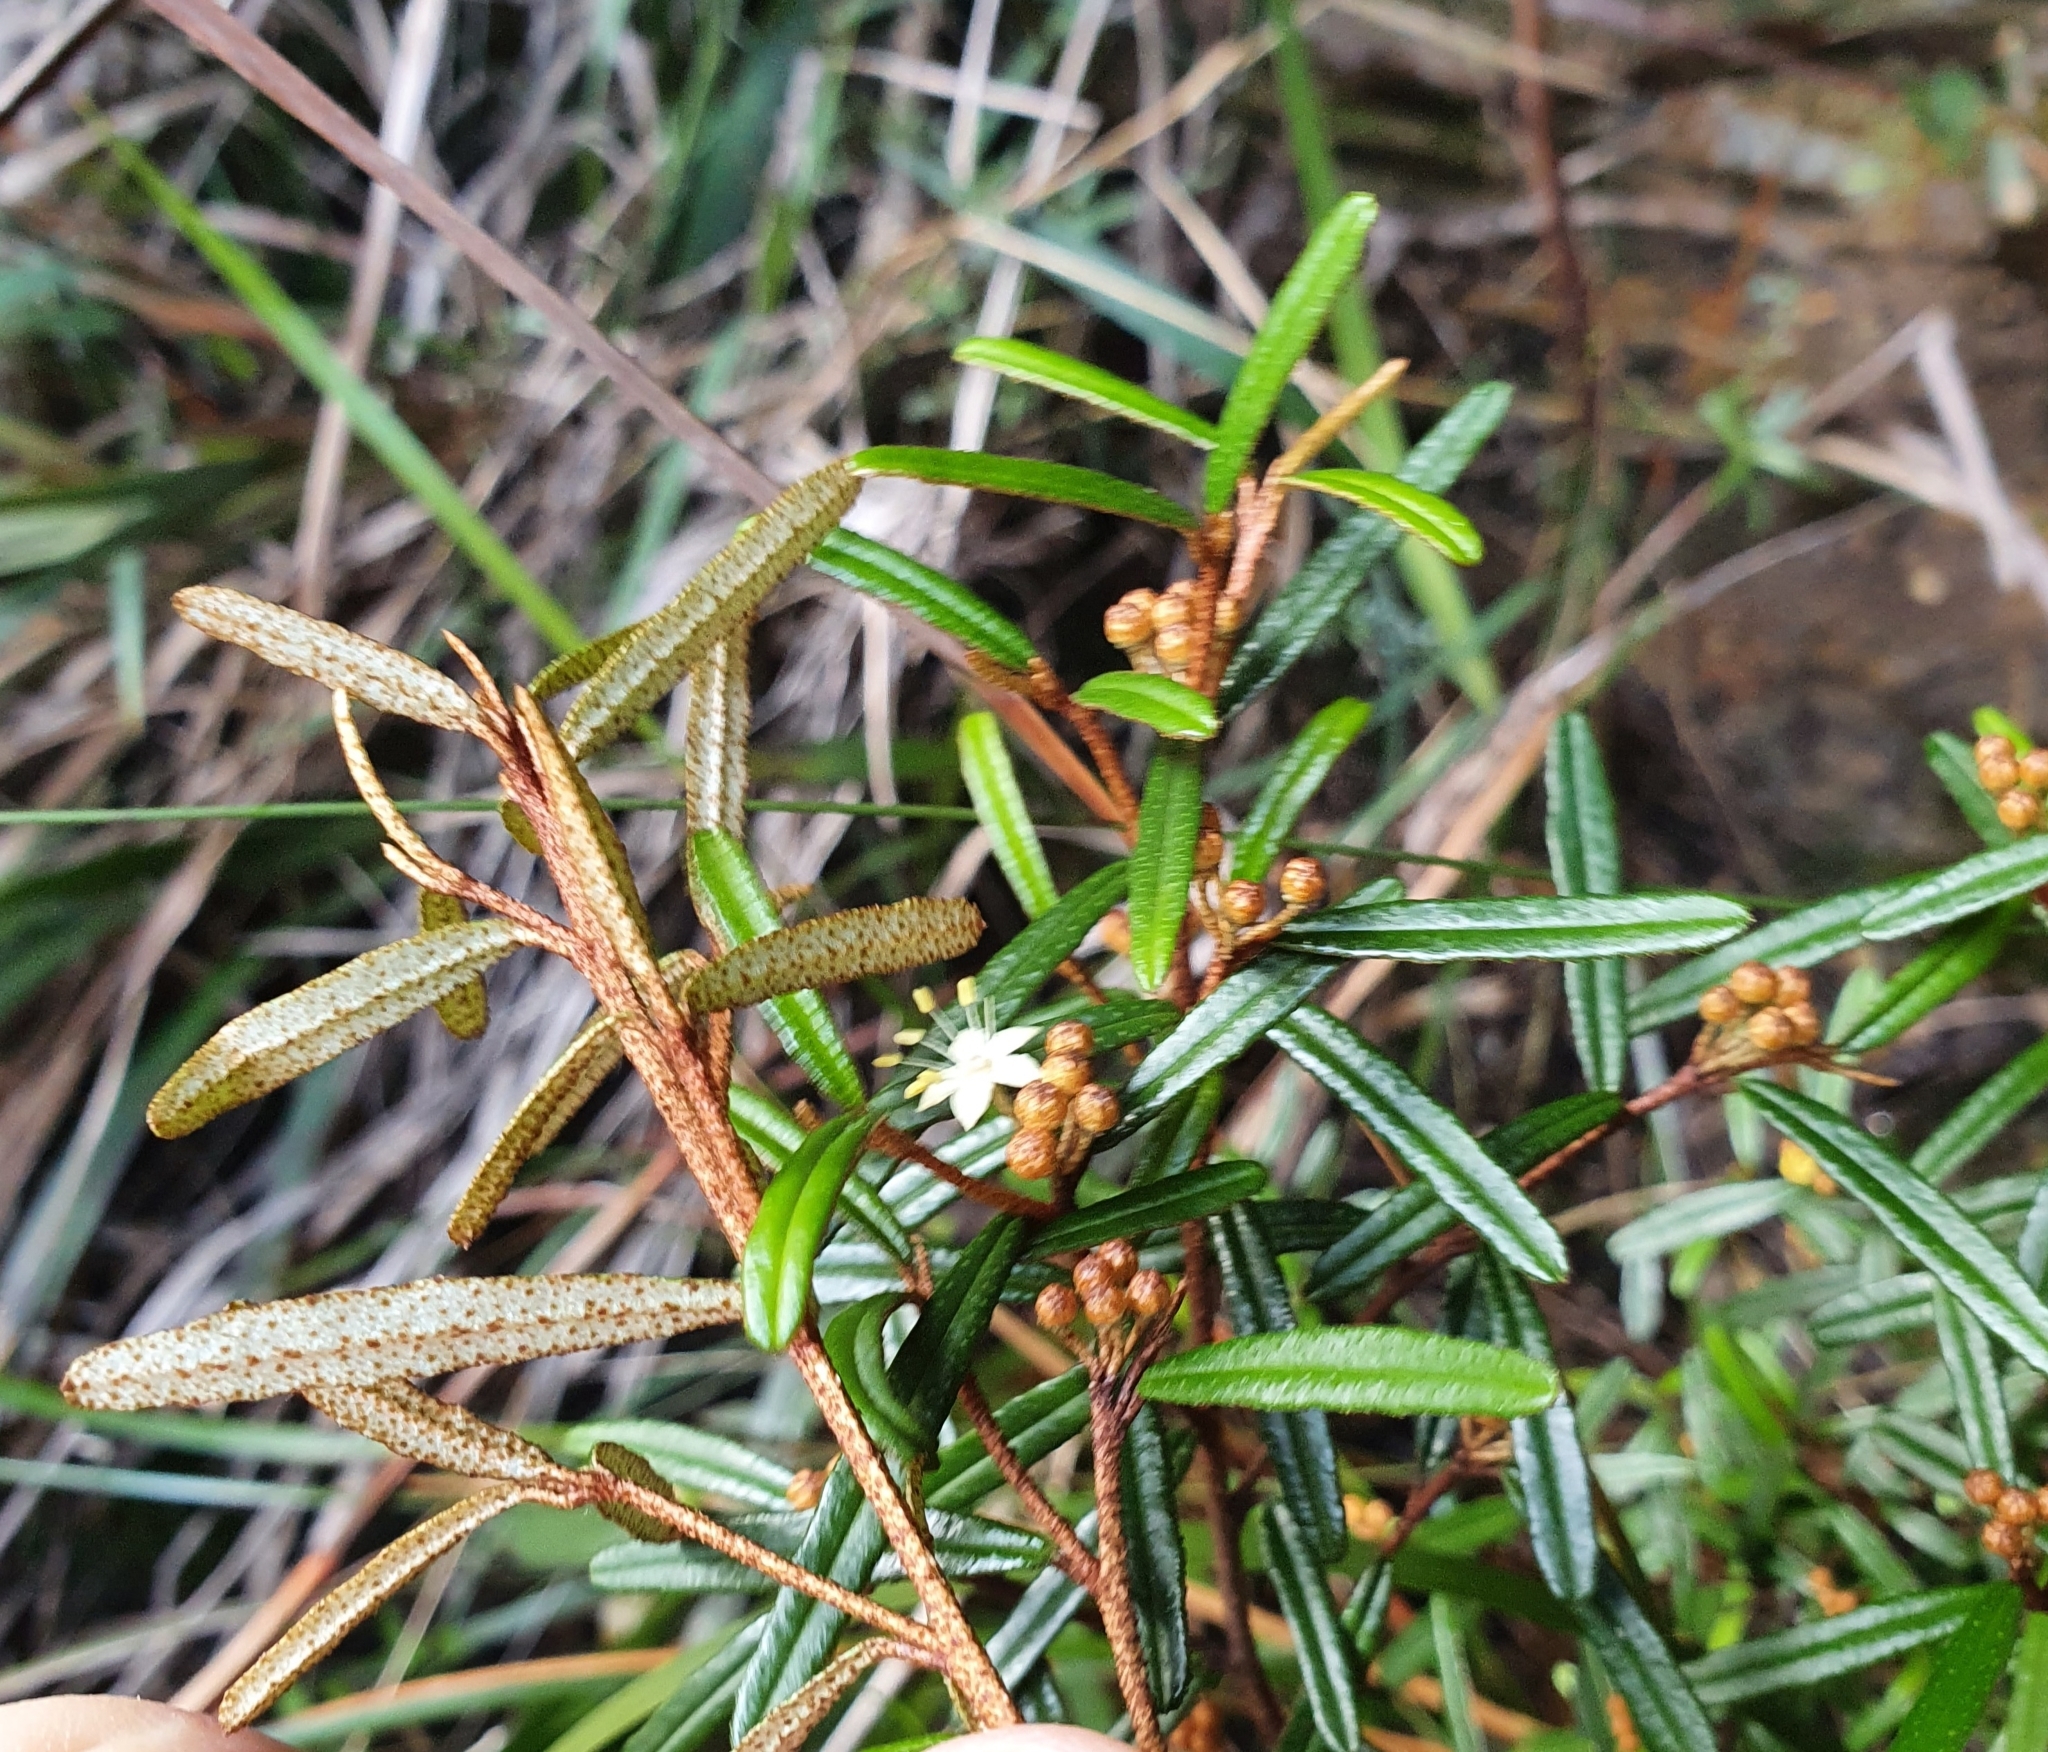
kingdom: Plantae
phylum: Tracheophyta
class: Magnoliopsida
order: Sapindales
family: Rutaceae
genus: Phebalium
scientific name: Phebalium squamulosum
